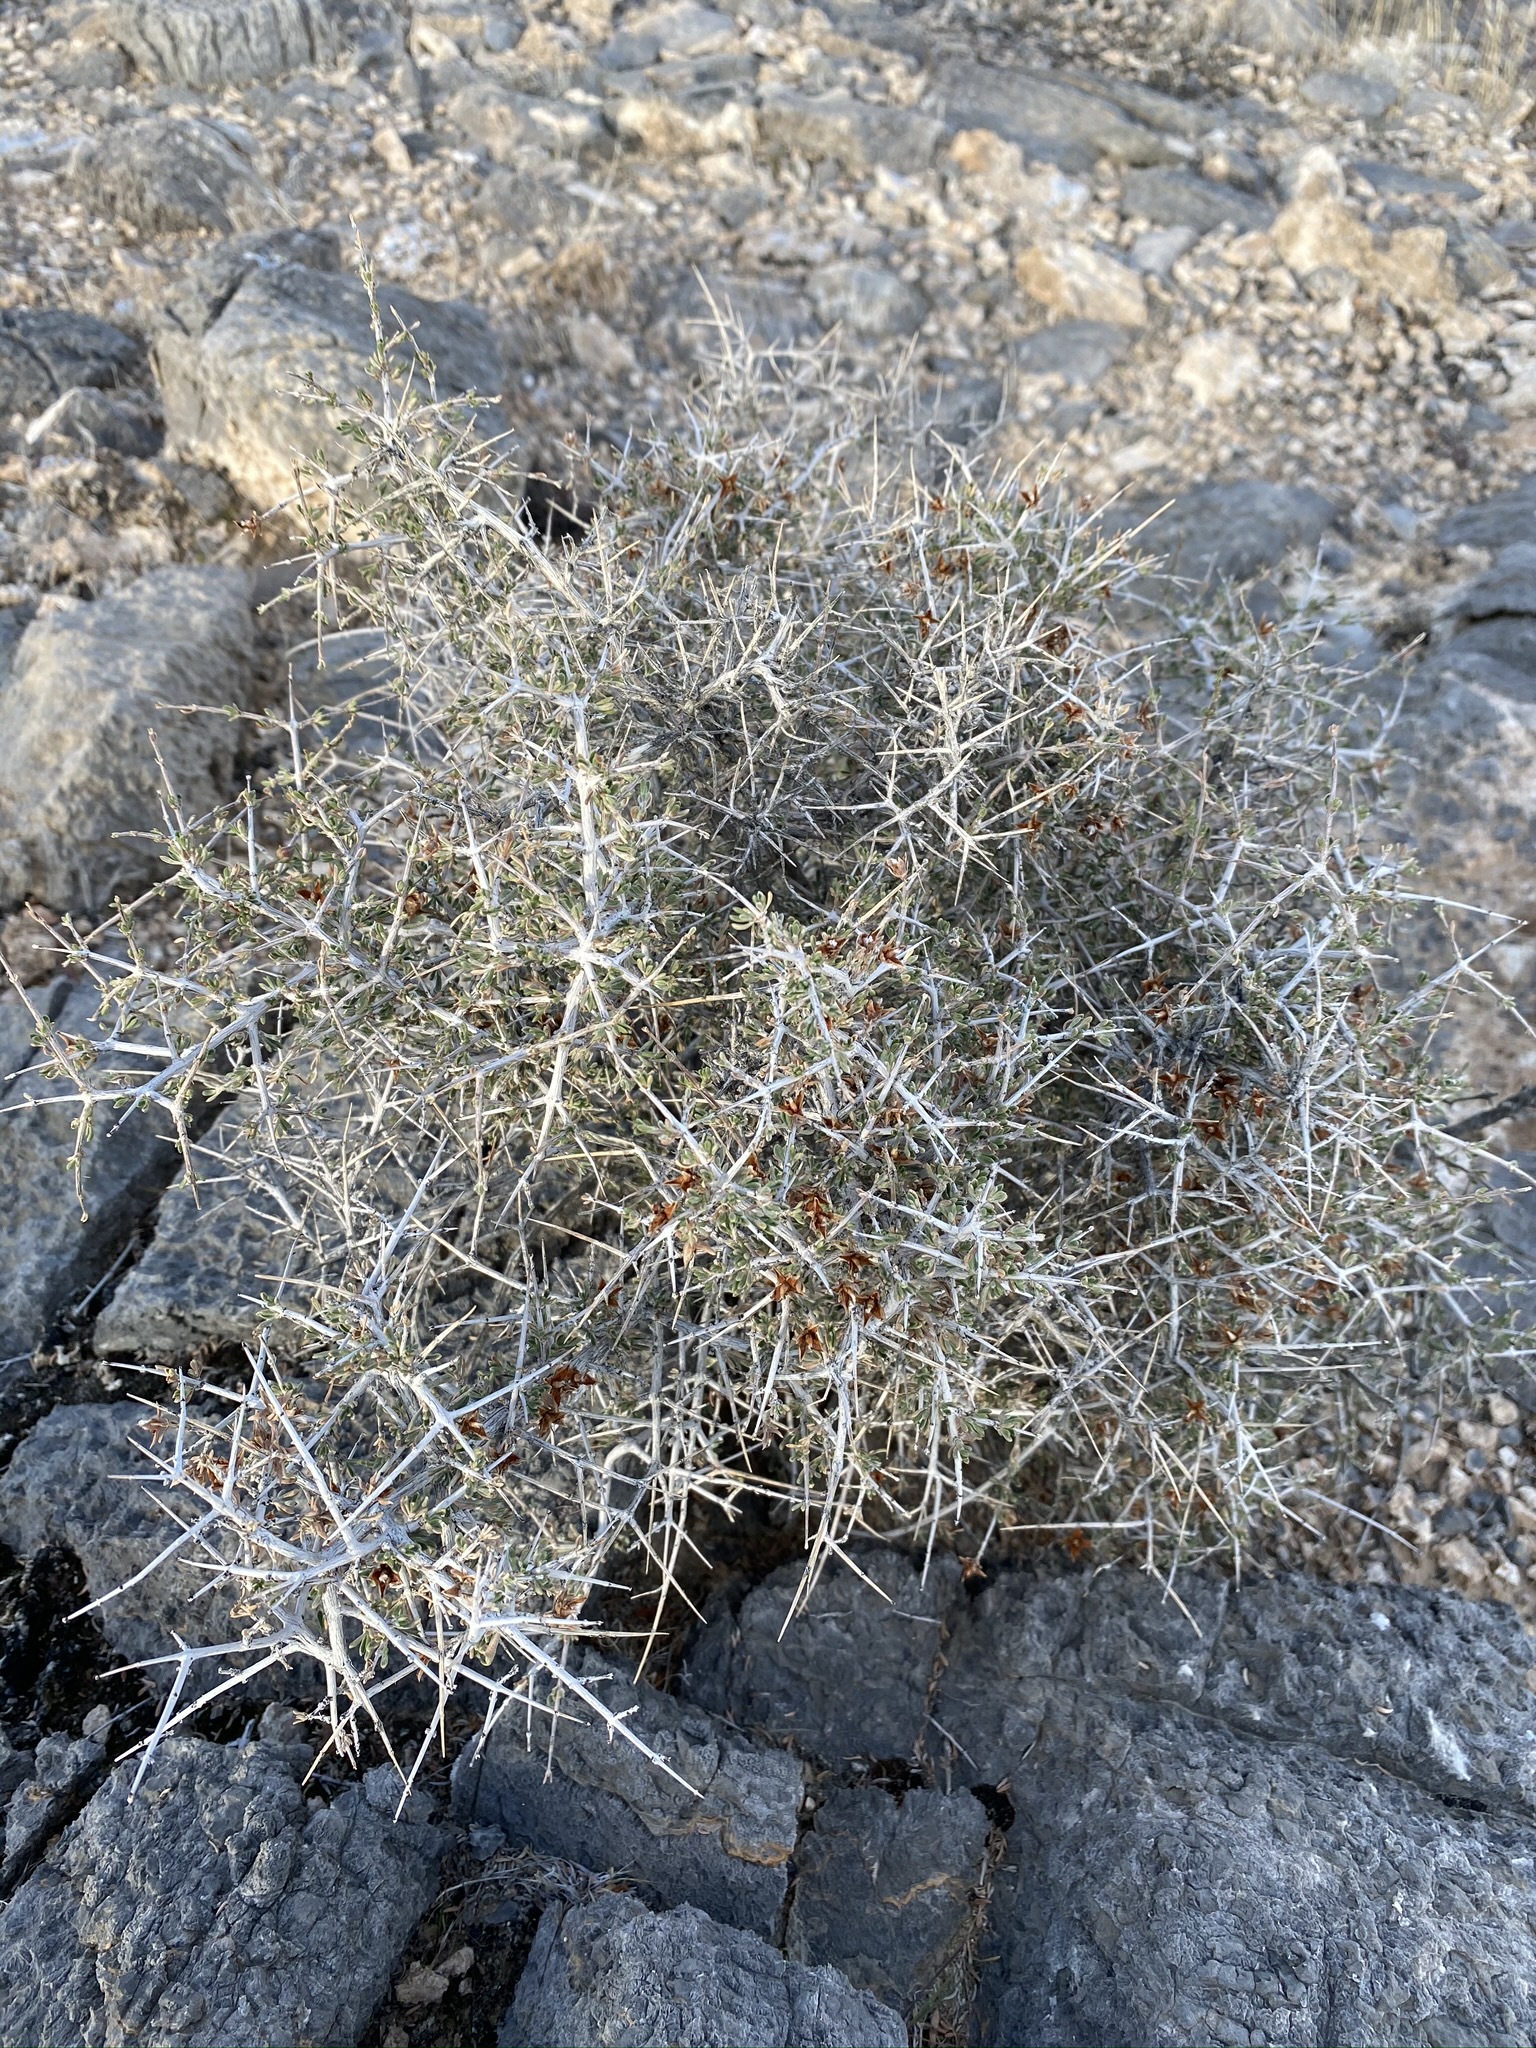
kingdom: Plantae
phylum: Tracheophyta
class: Magnoliopsida
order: Rosales
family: Rosaceae
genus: Coleogyne
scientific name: Coleogyne ramosissima
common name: Blackbrush
